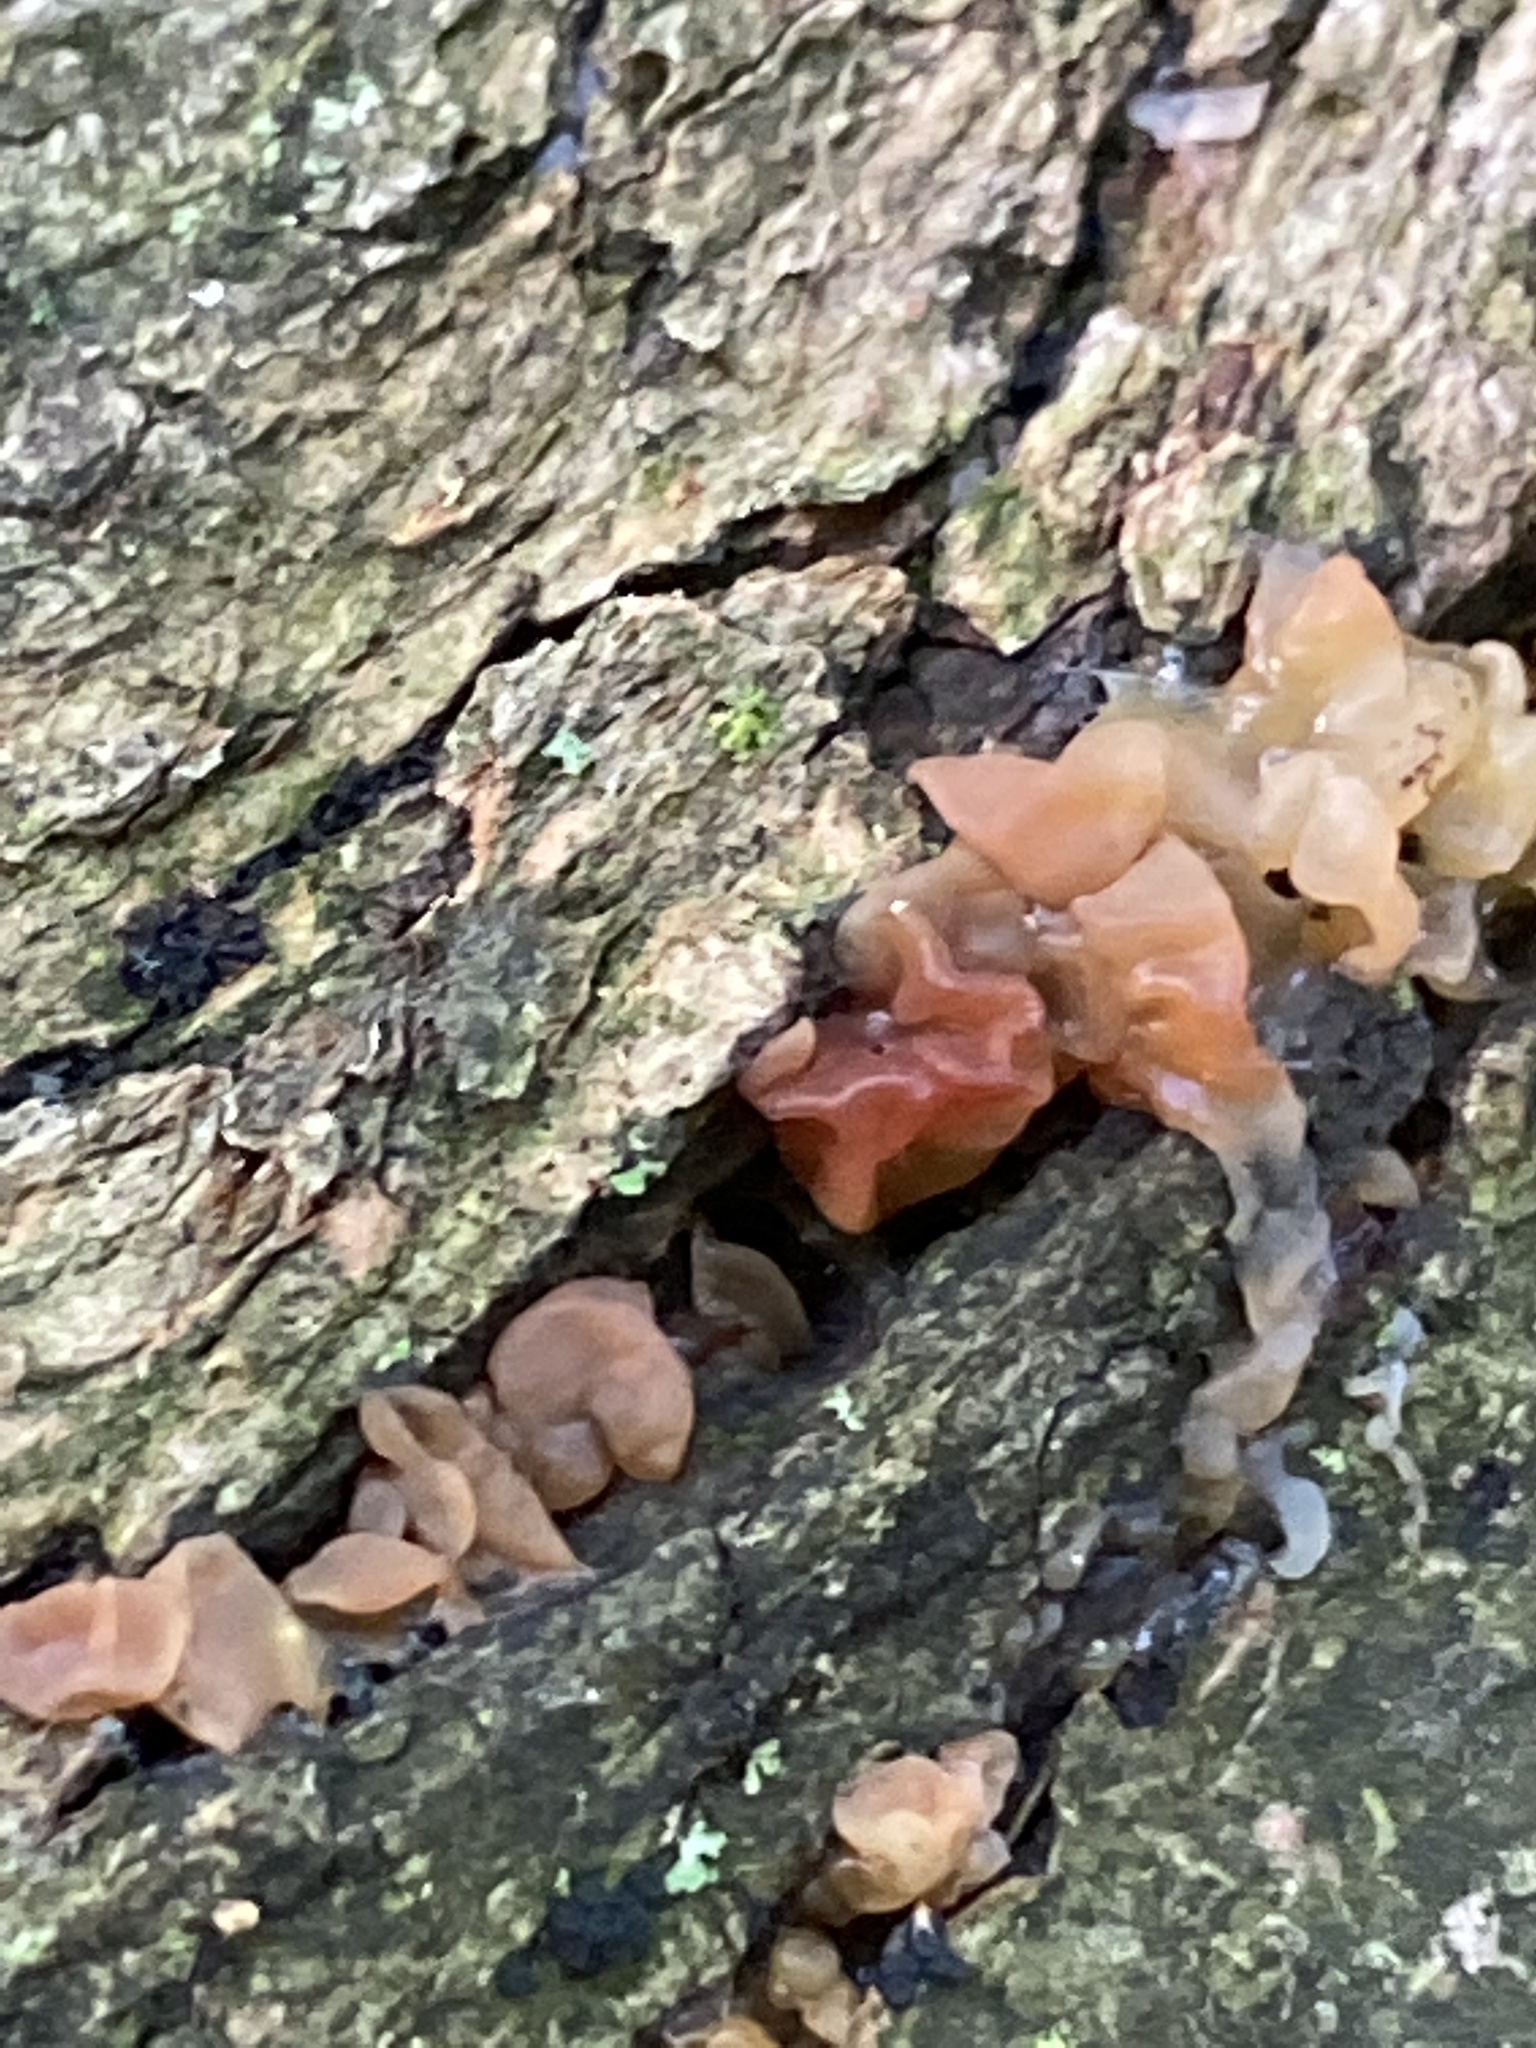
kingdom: Fungi
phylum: Basidiomycota
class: Tremellomycetes
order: Tremellales
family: Tremellaceae
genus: Phaeotremella
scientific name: Phaeotremella foliacea
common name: Leafy brain
